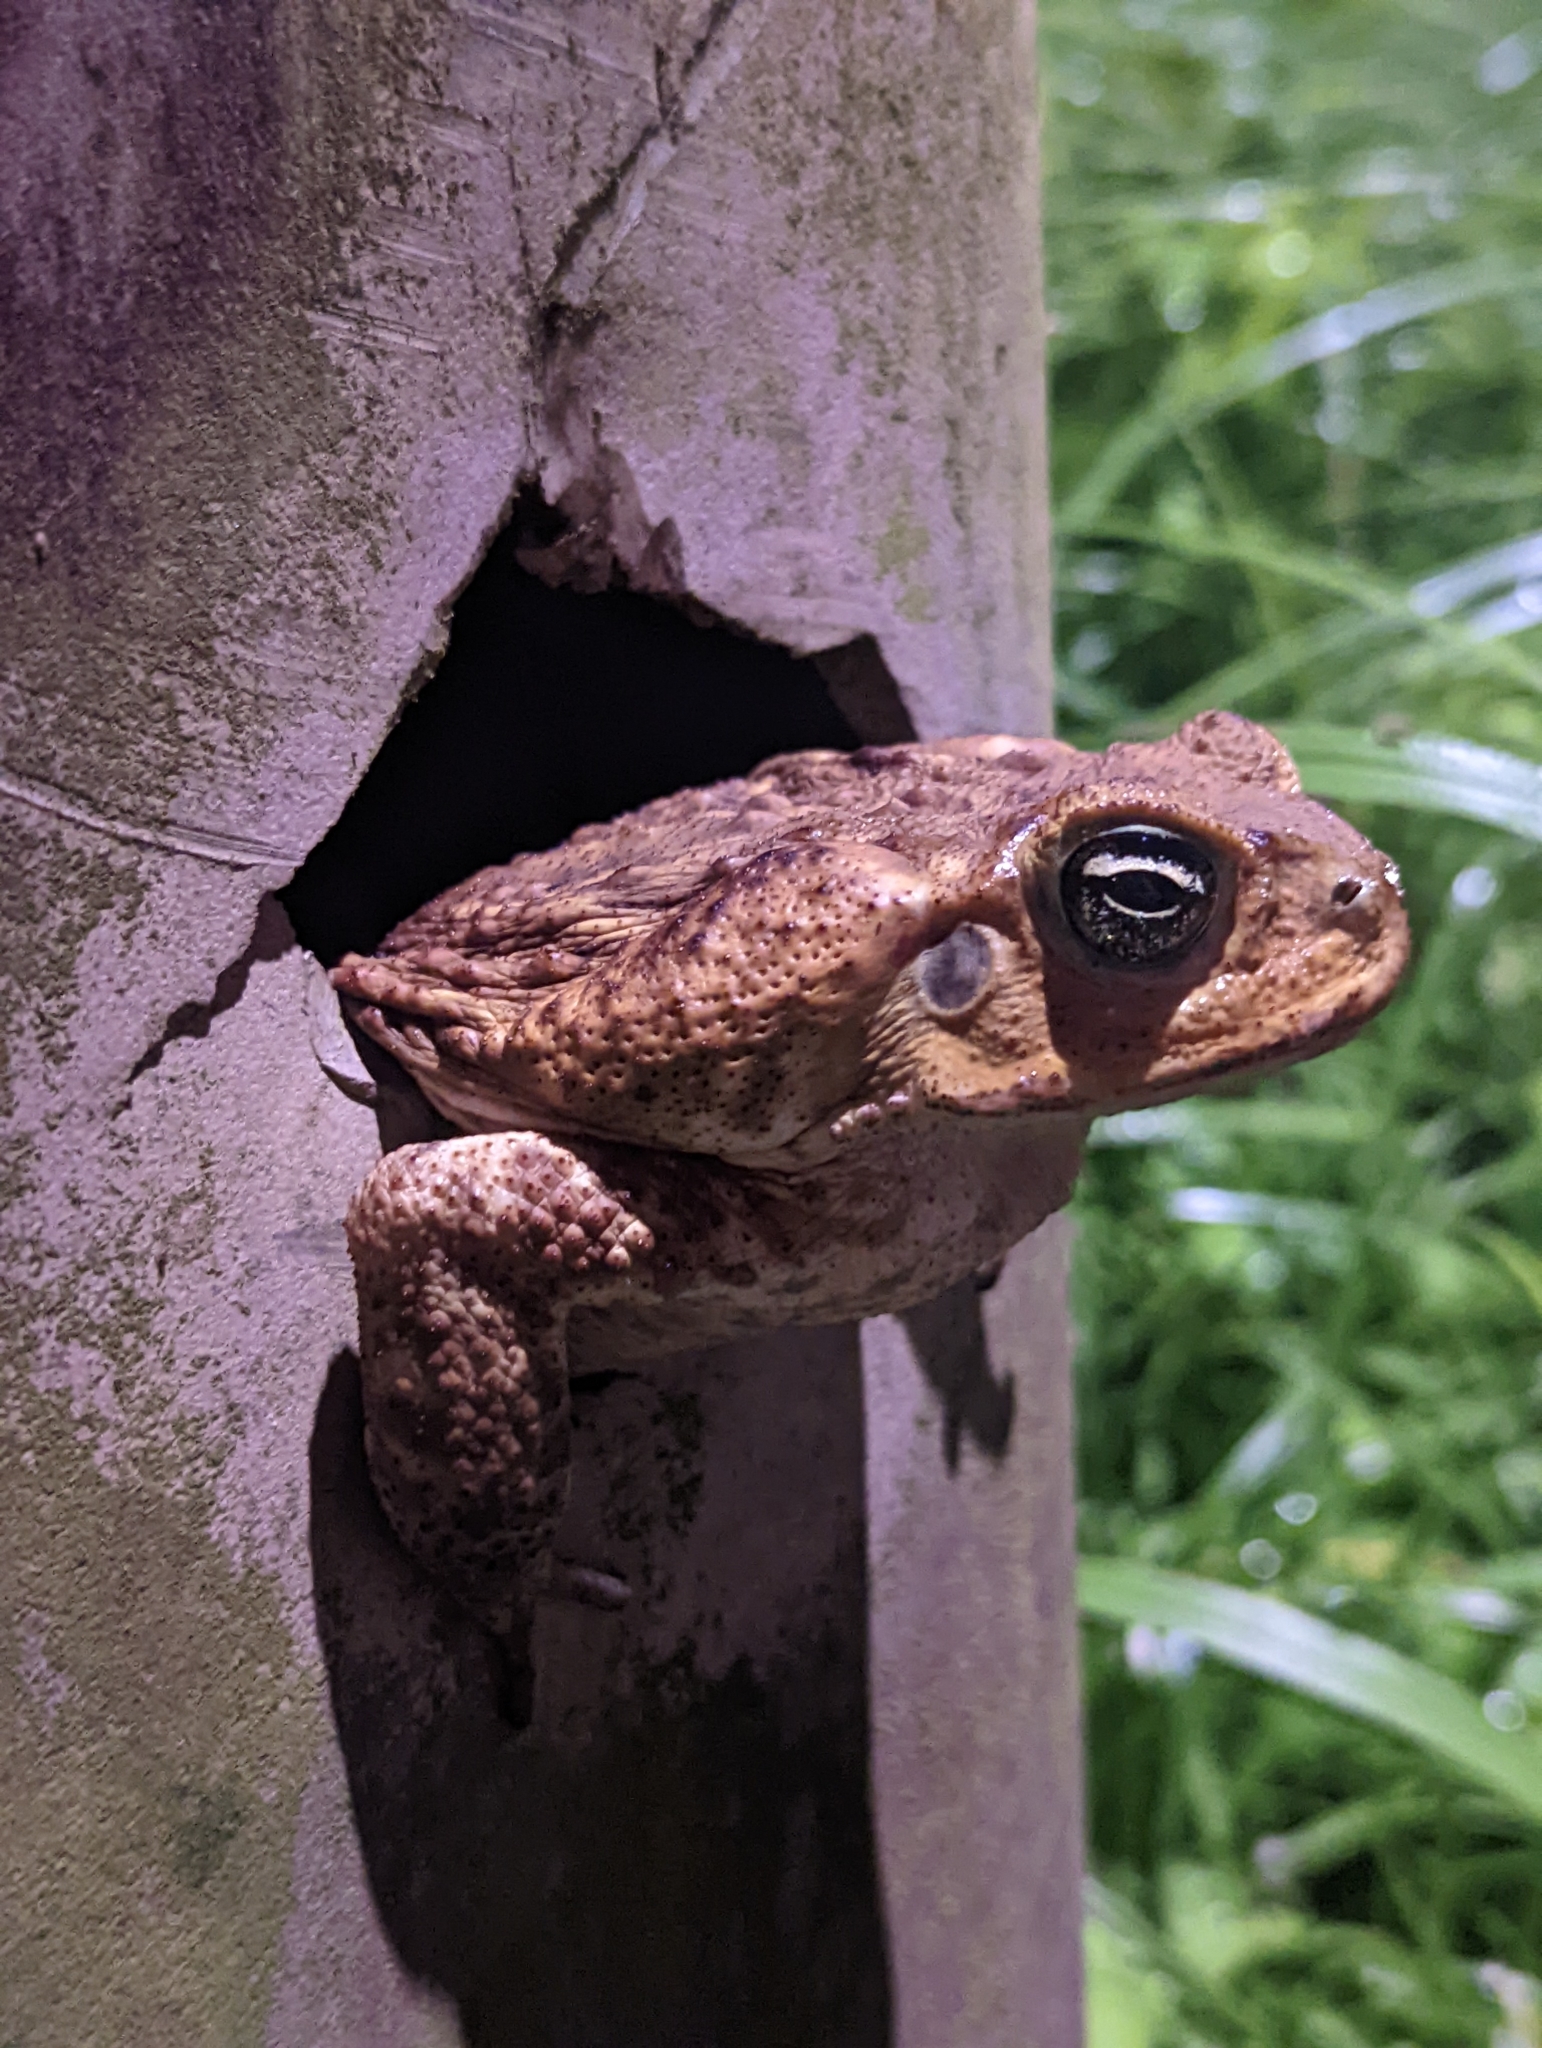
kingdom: Animalia
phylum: Chordata
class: Amphibia
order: Anura
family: Bufonidae
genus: Rhinella
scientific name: Rhinella horribilis
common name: Mesoamerican cane toad
